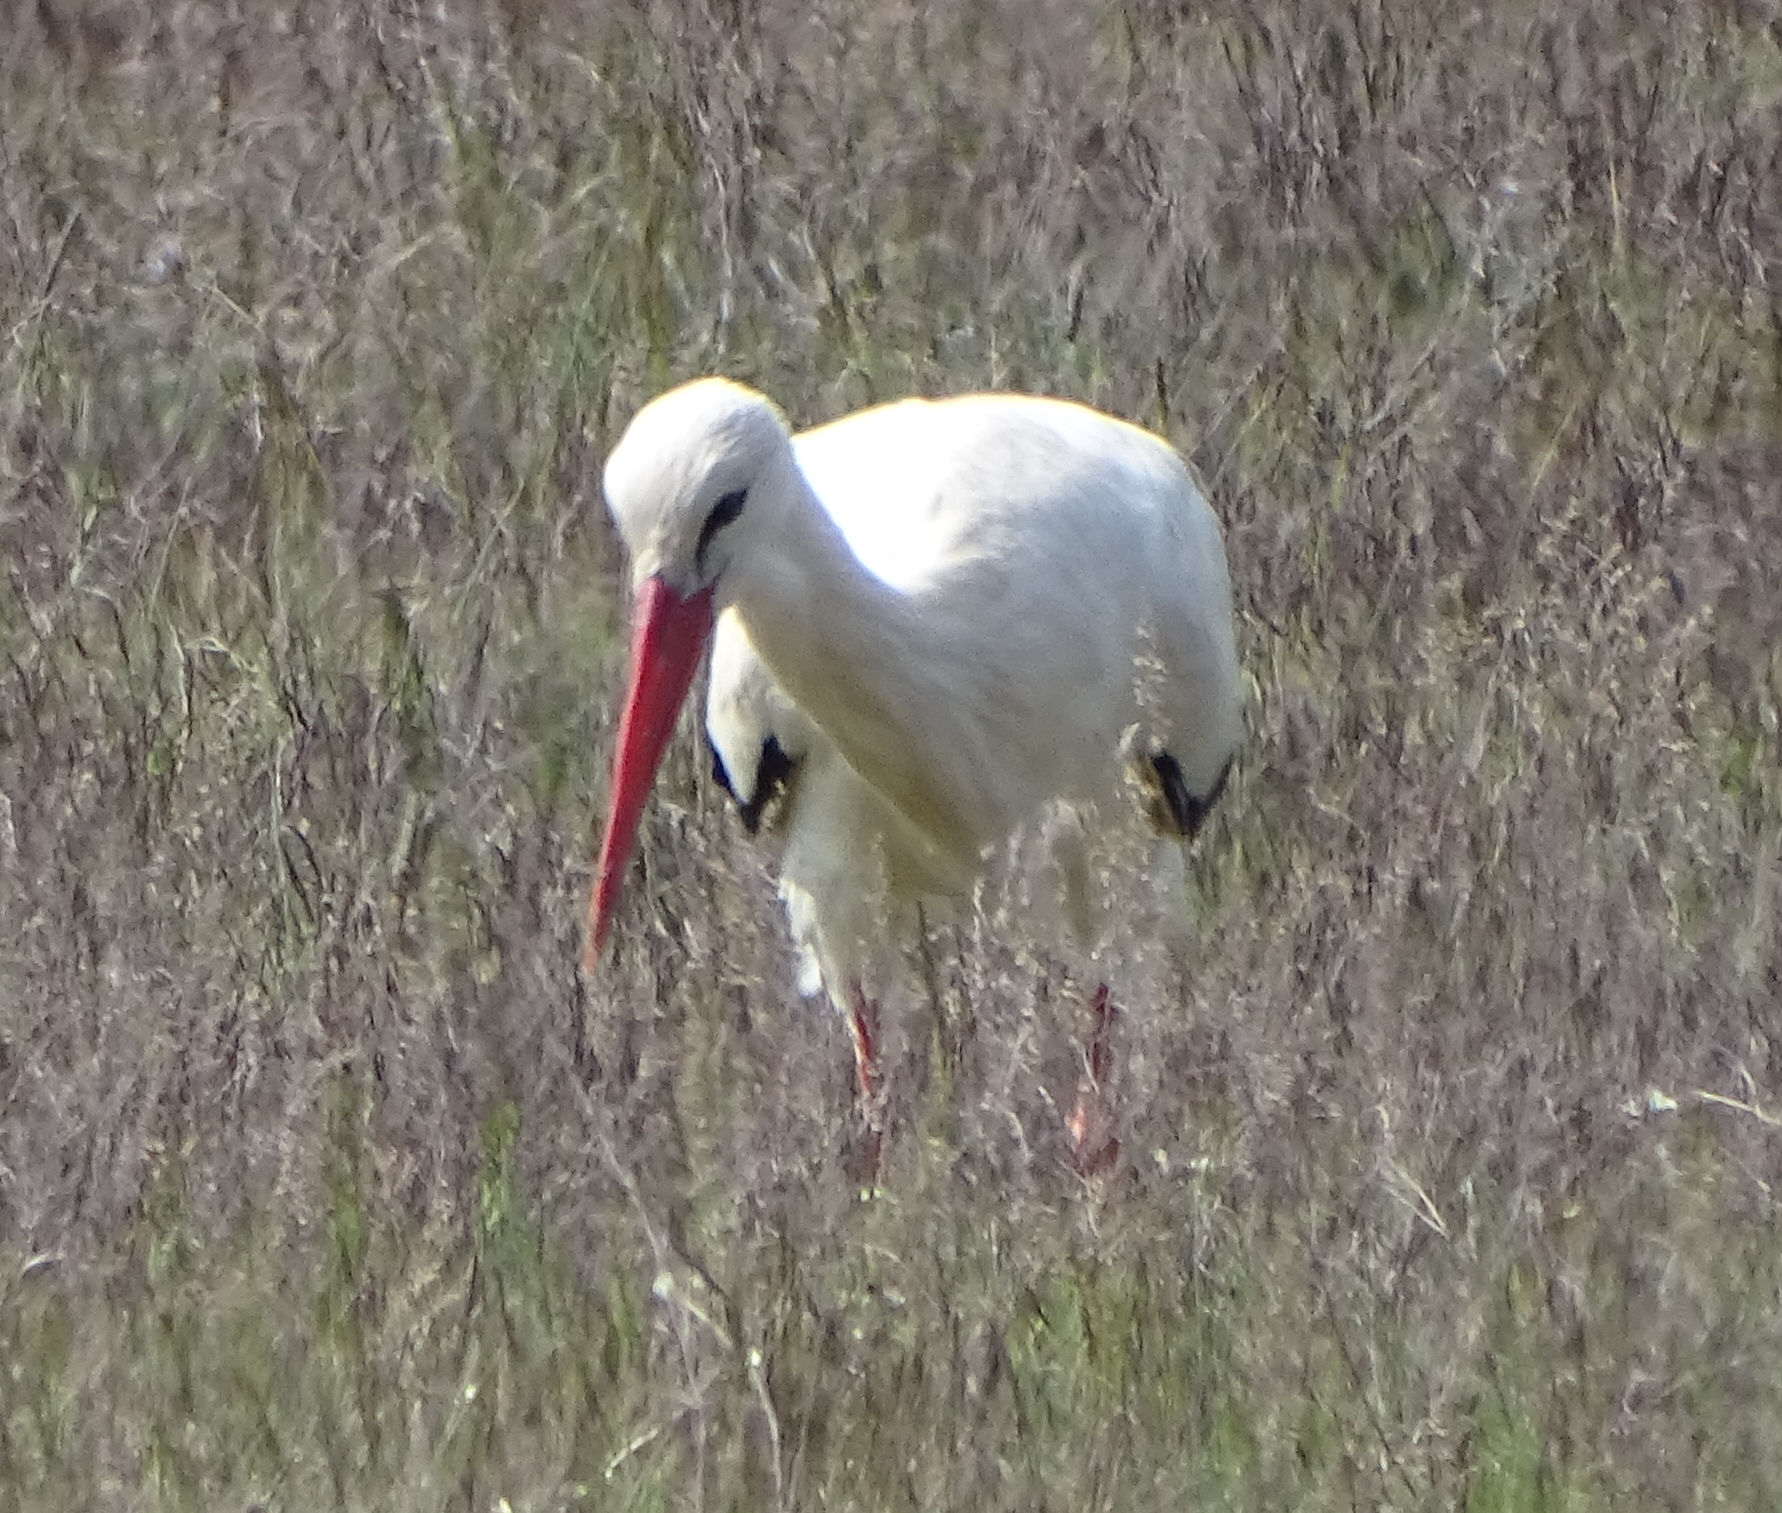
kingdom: Animalia
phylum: Chordata
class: Aves
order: Ciconiiformes
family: Ciconiidae
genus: Ciconia
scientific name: Ciconia ciconia
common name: White stork
